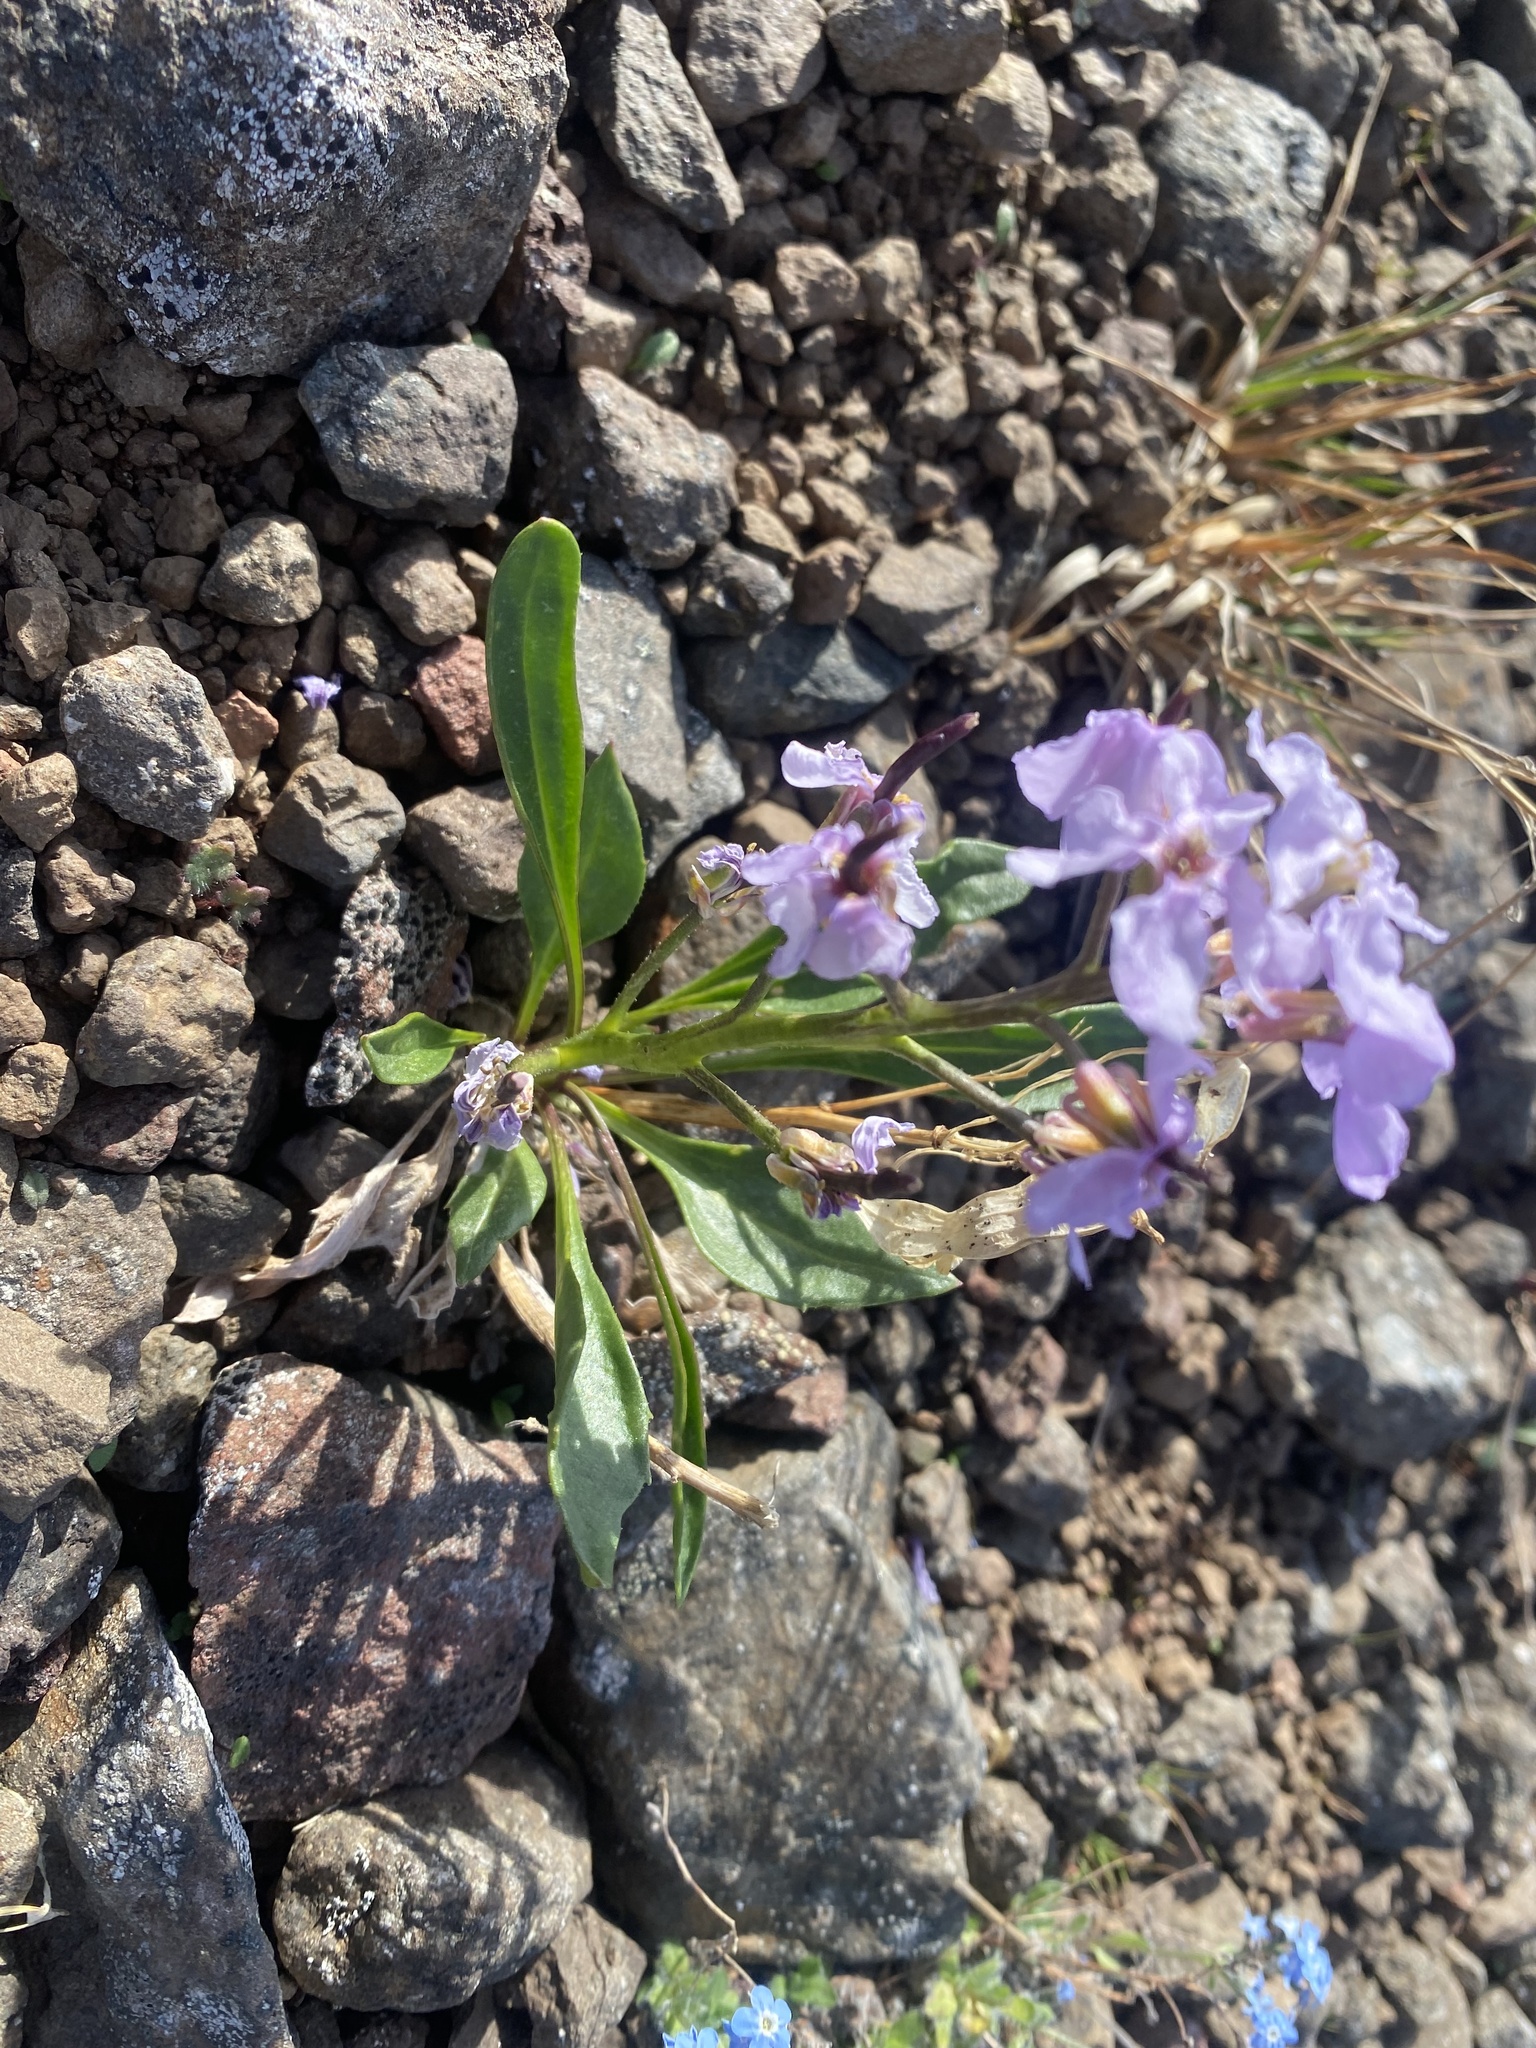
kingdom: Plantae
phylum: Tracheophyta
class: Magnoliopsida
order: Brassicales
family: Brassicaceae
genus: Parrya
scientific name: Parrya nudicaulis
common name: Naked-stemmed false wallflower
